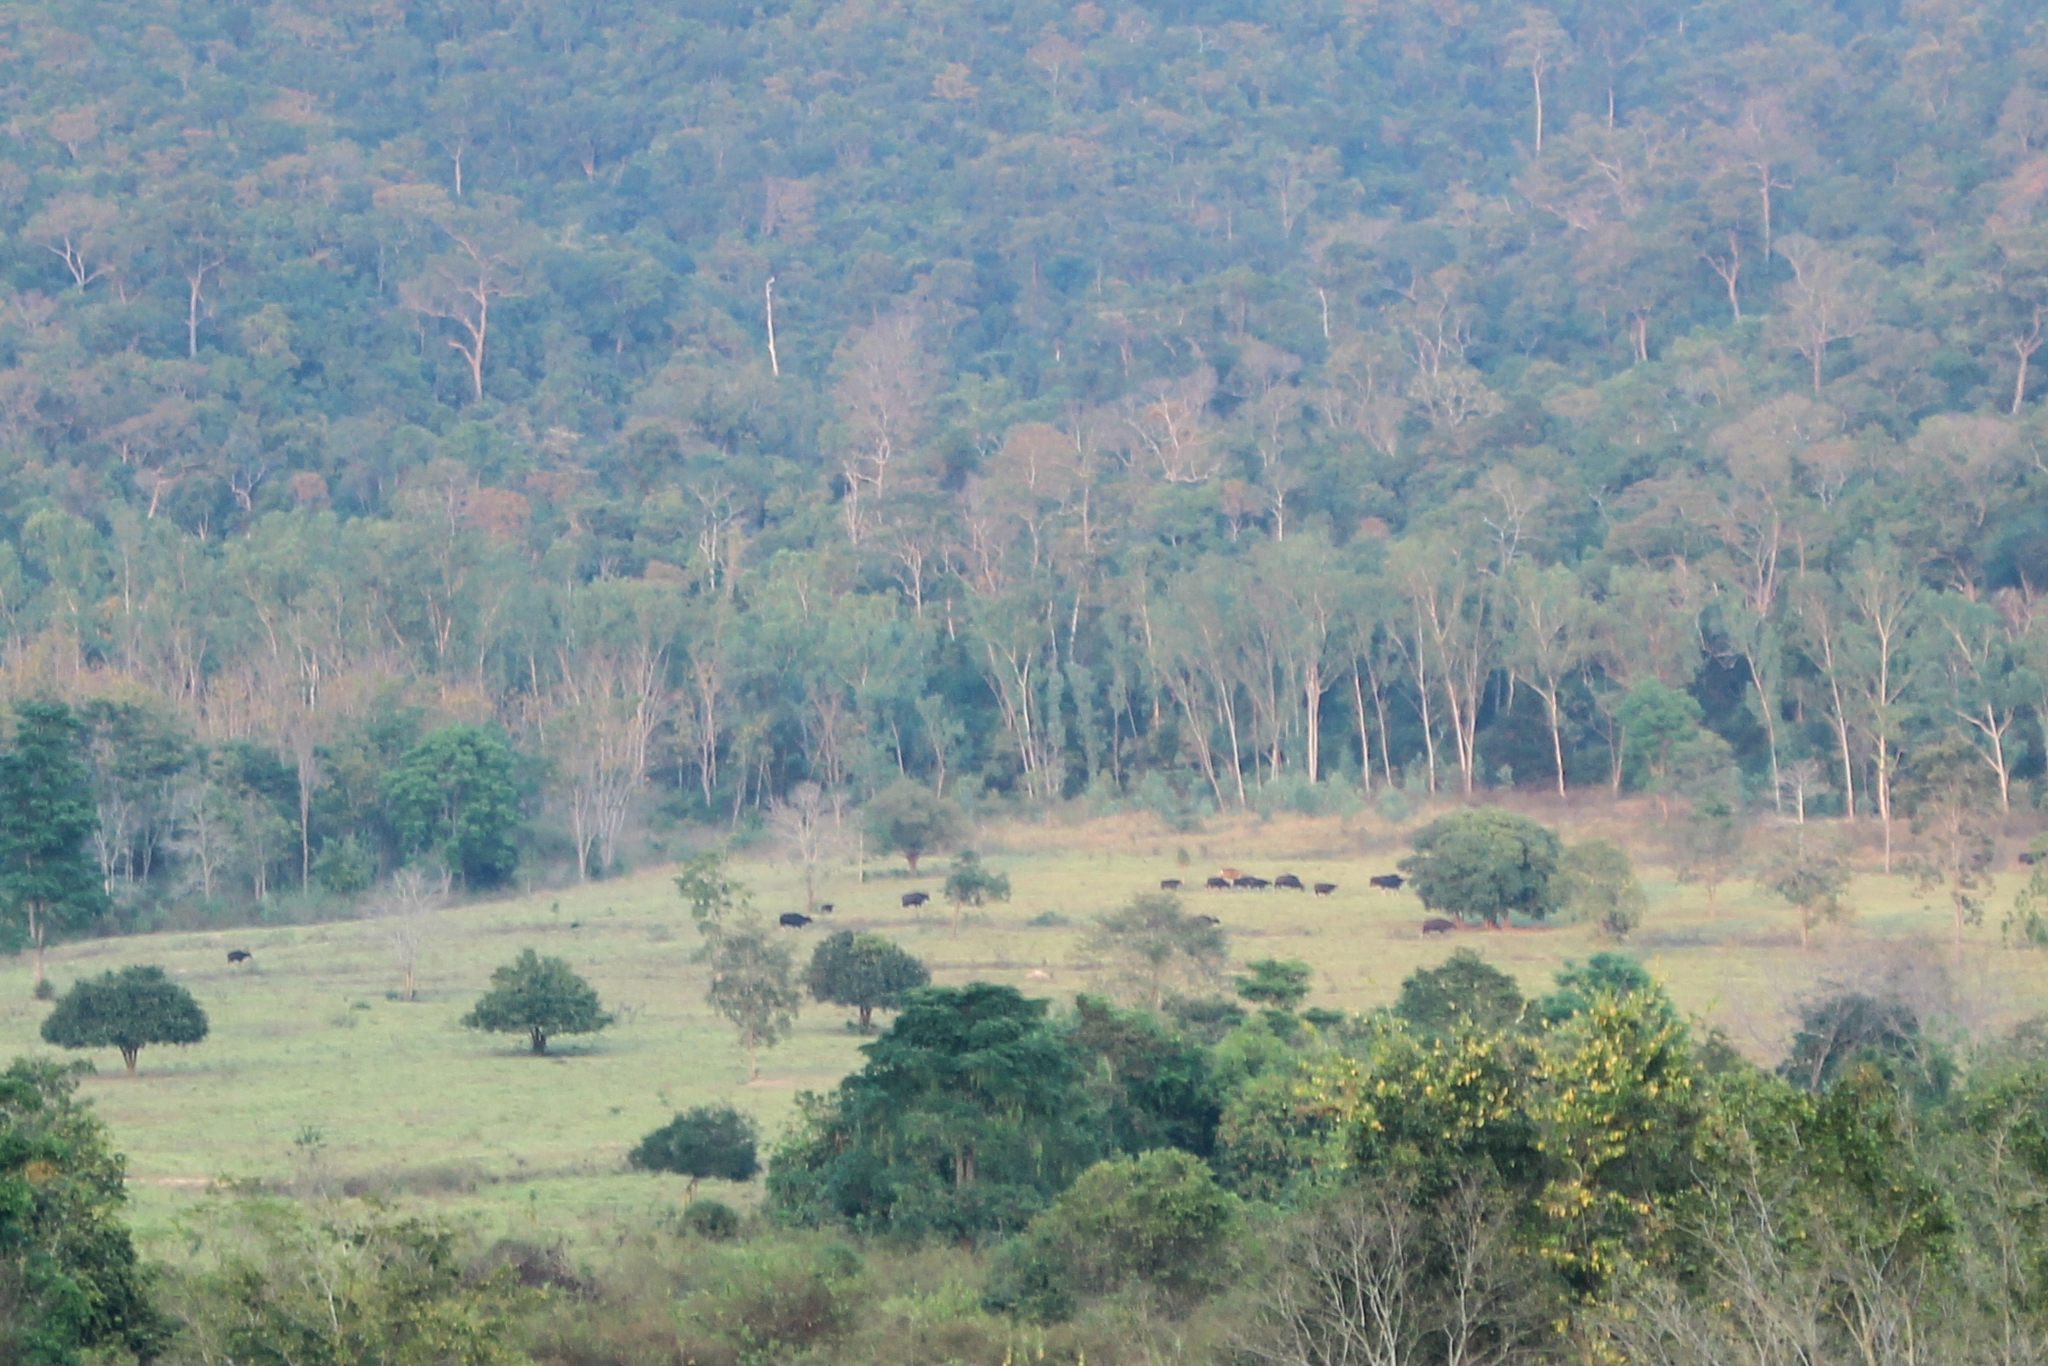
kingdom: Animalia
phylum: Chordata
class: Mammalia
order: Artiodactyla
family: Bovidae
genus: Bos
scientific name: Bos frontalis
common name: Gaur
